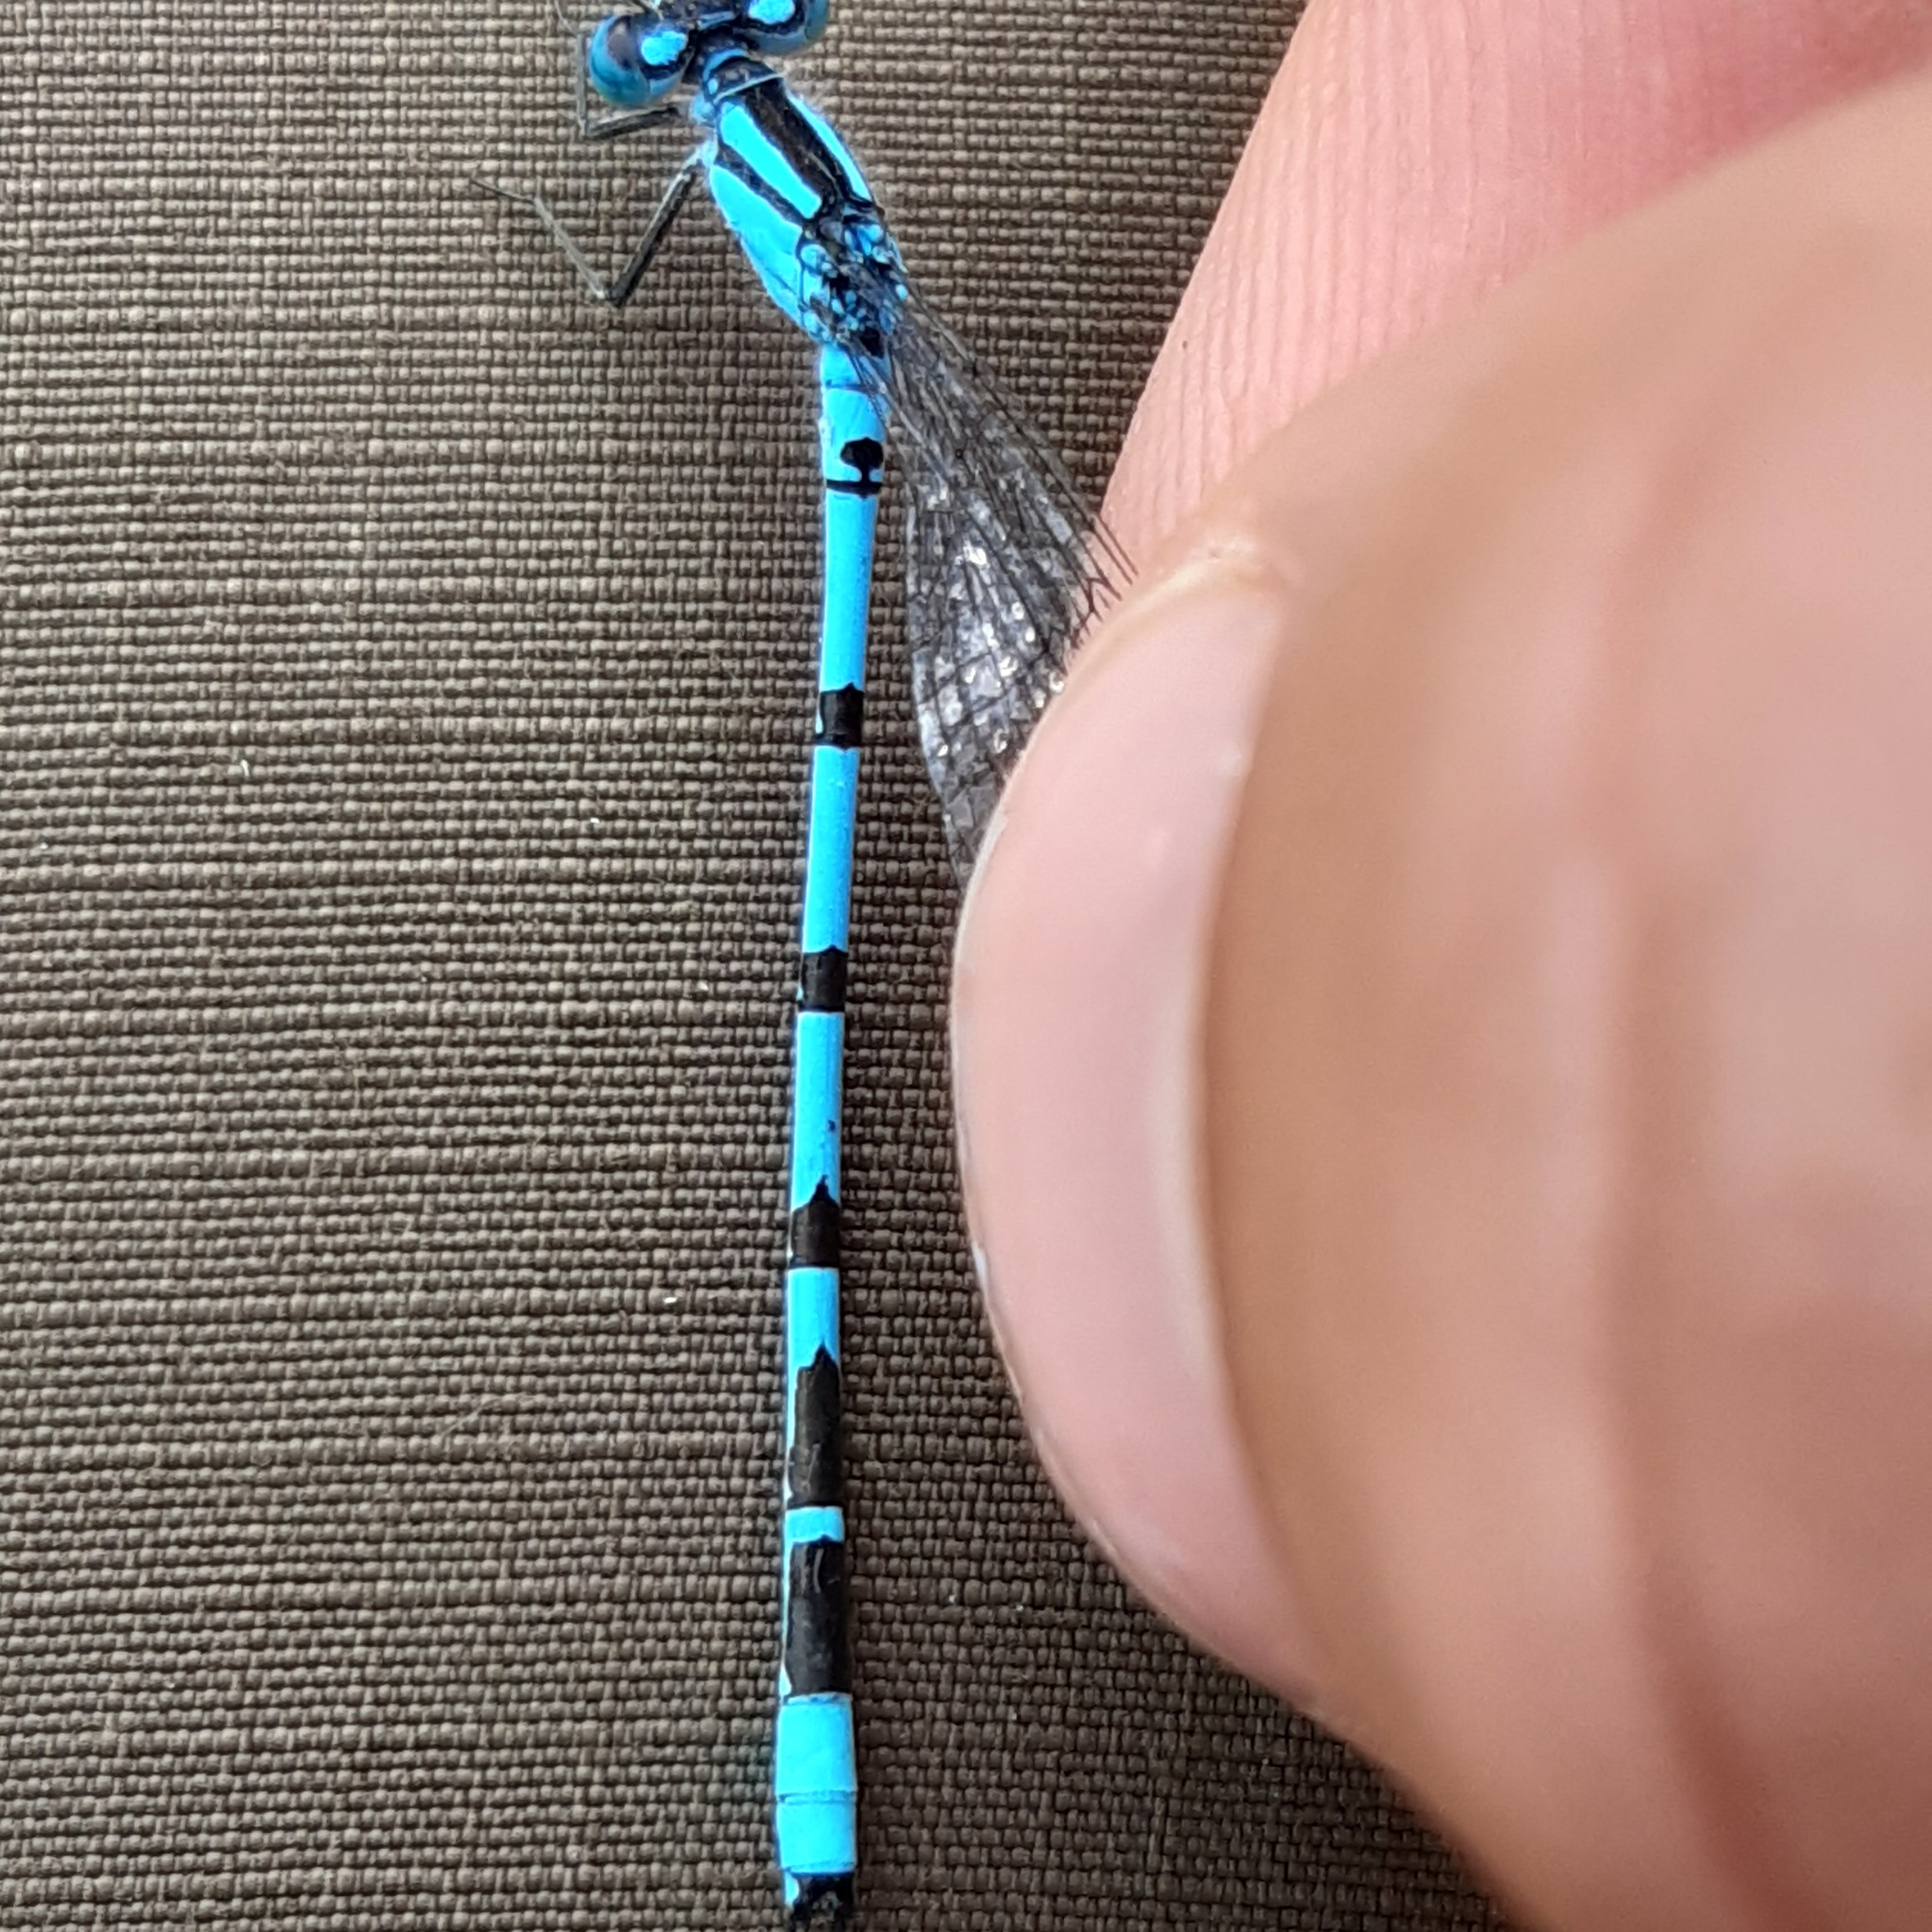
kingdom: Animalia
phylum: Arthropoda
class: Insecta
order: Odonata
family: Coenagrionidae
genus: Enallagma
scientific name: Enallagma cyathigerum
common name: Common blue damselfly
